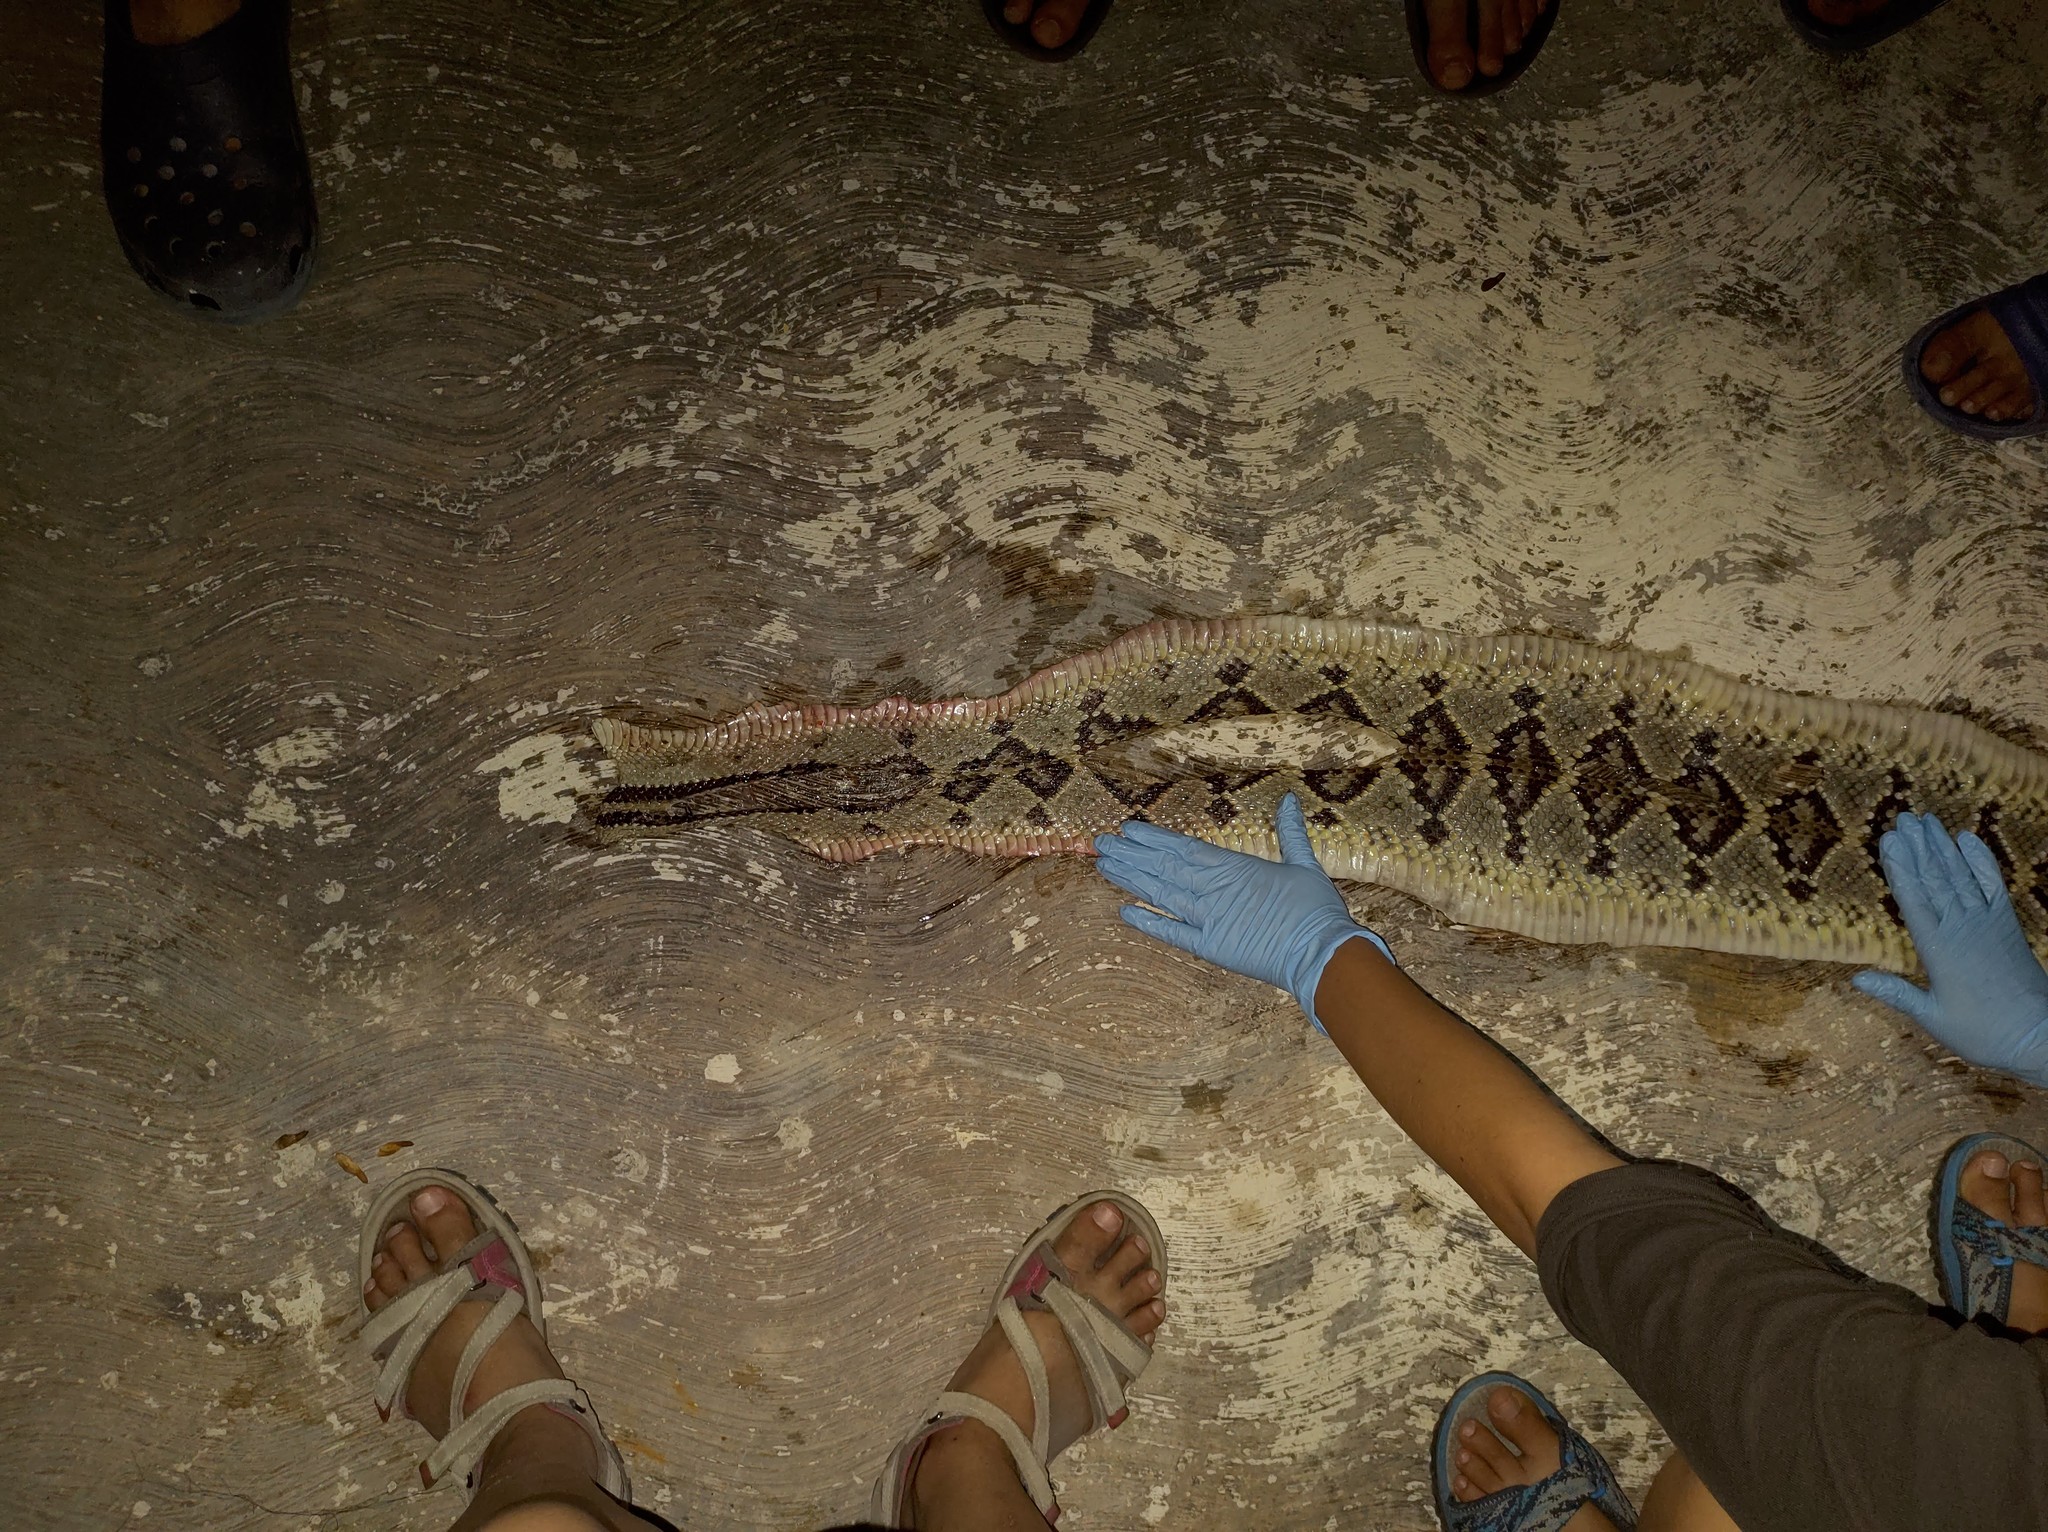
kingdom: Animalia
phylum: Chordata
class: Squamata
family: Viperidae
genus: Crotalus
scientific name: Crotalus tzabcan
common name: Yucatan neotropical rattlesnake
